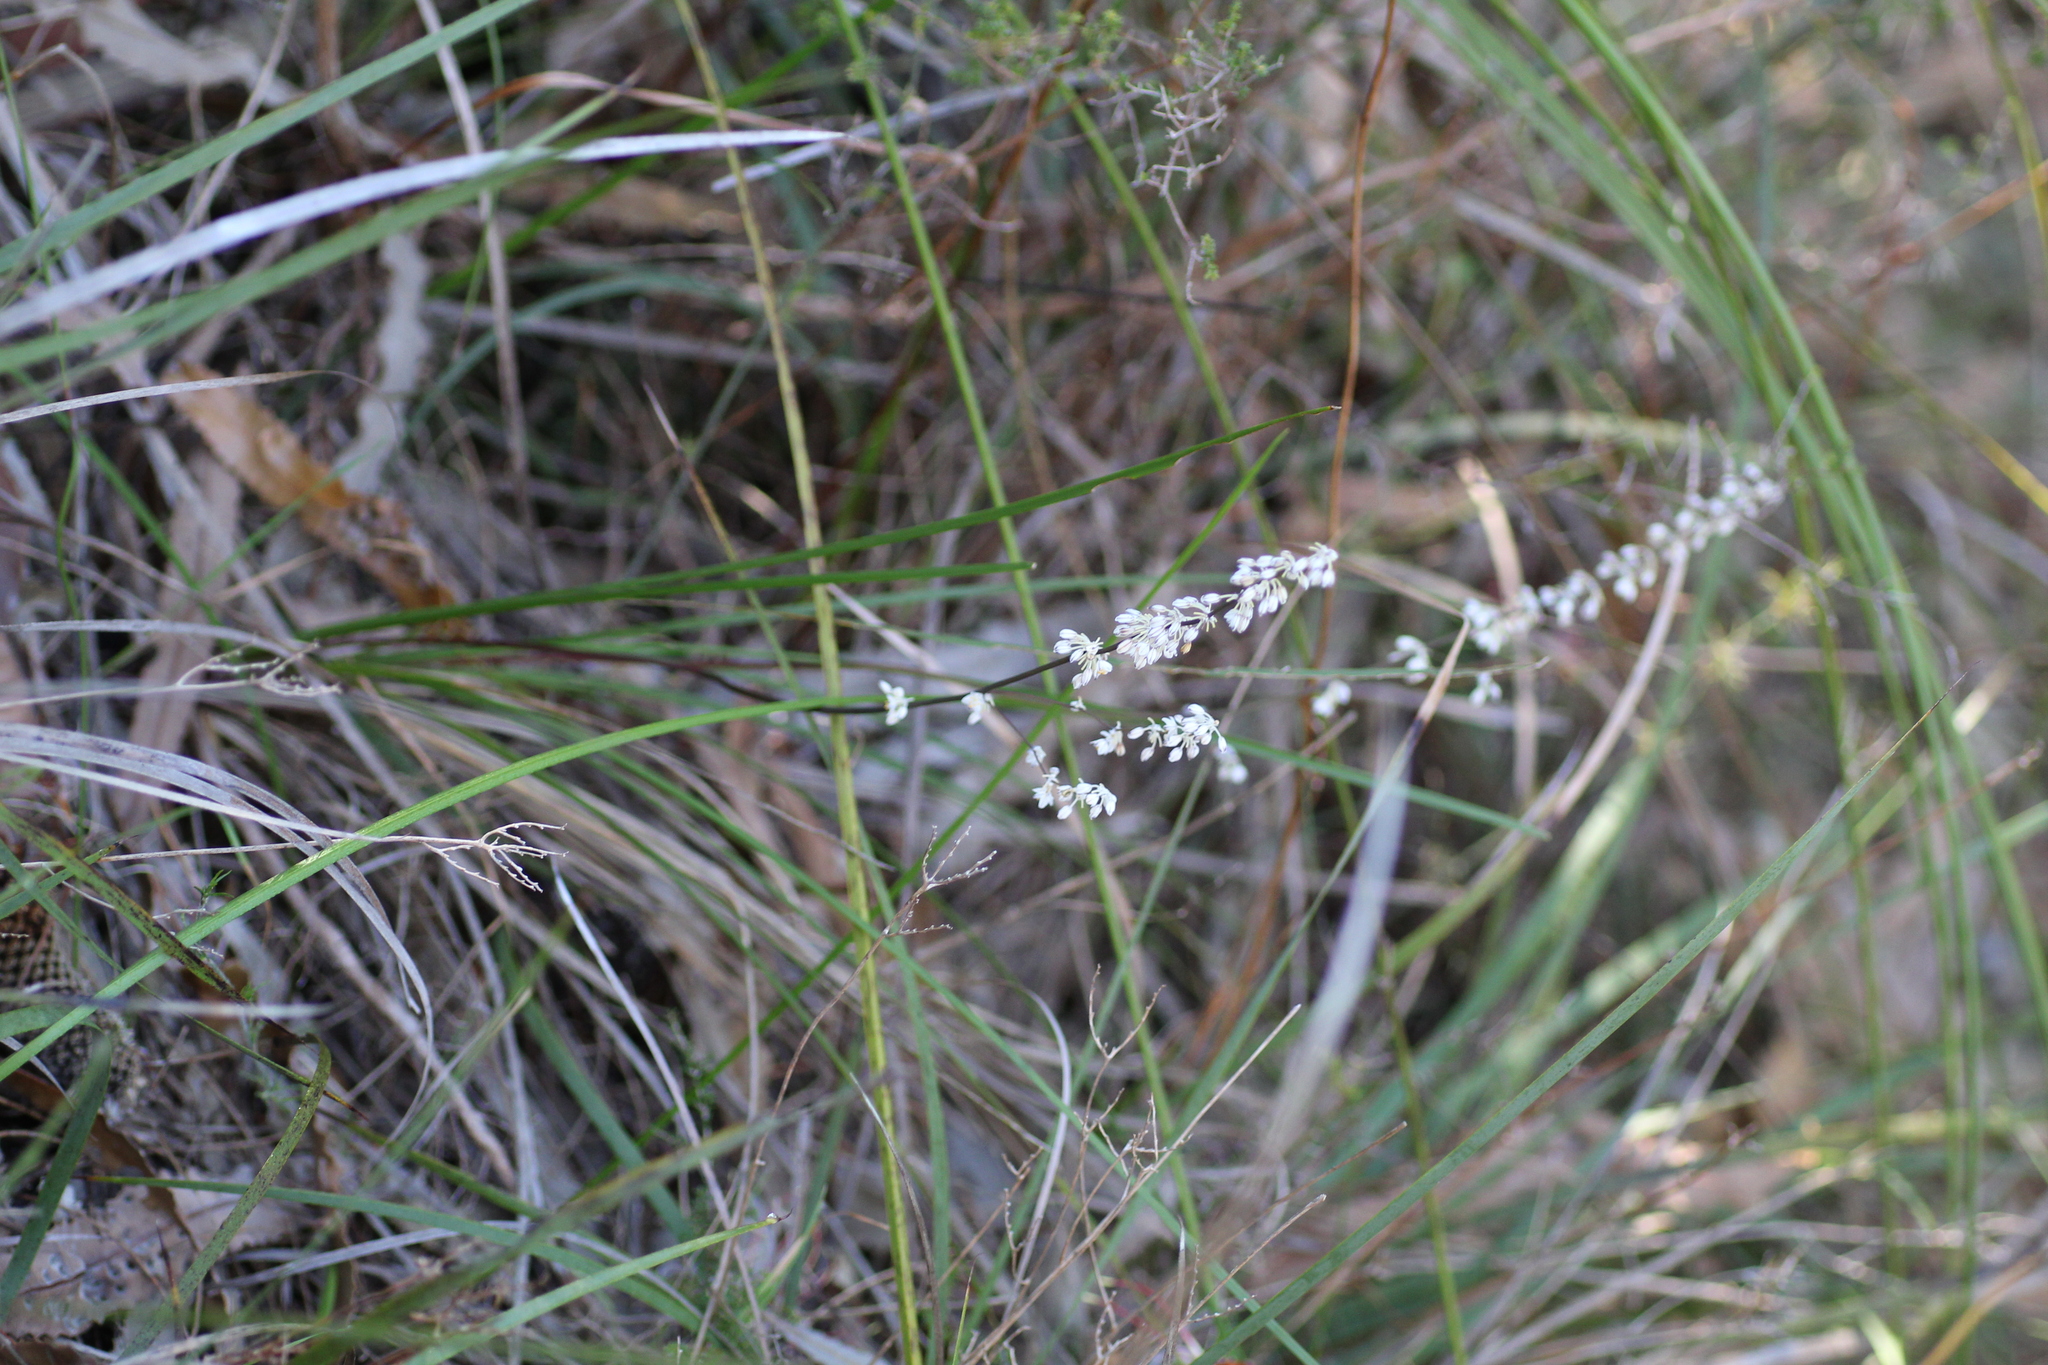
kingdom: Plantae
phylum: Tracheophyta
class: Liliopsida
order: Asparagales
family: Asparagaceae
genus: Lomandra
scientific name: Lomandra nigricans
